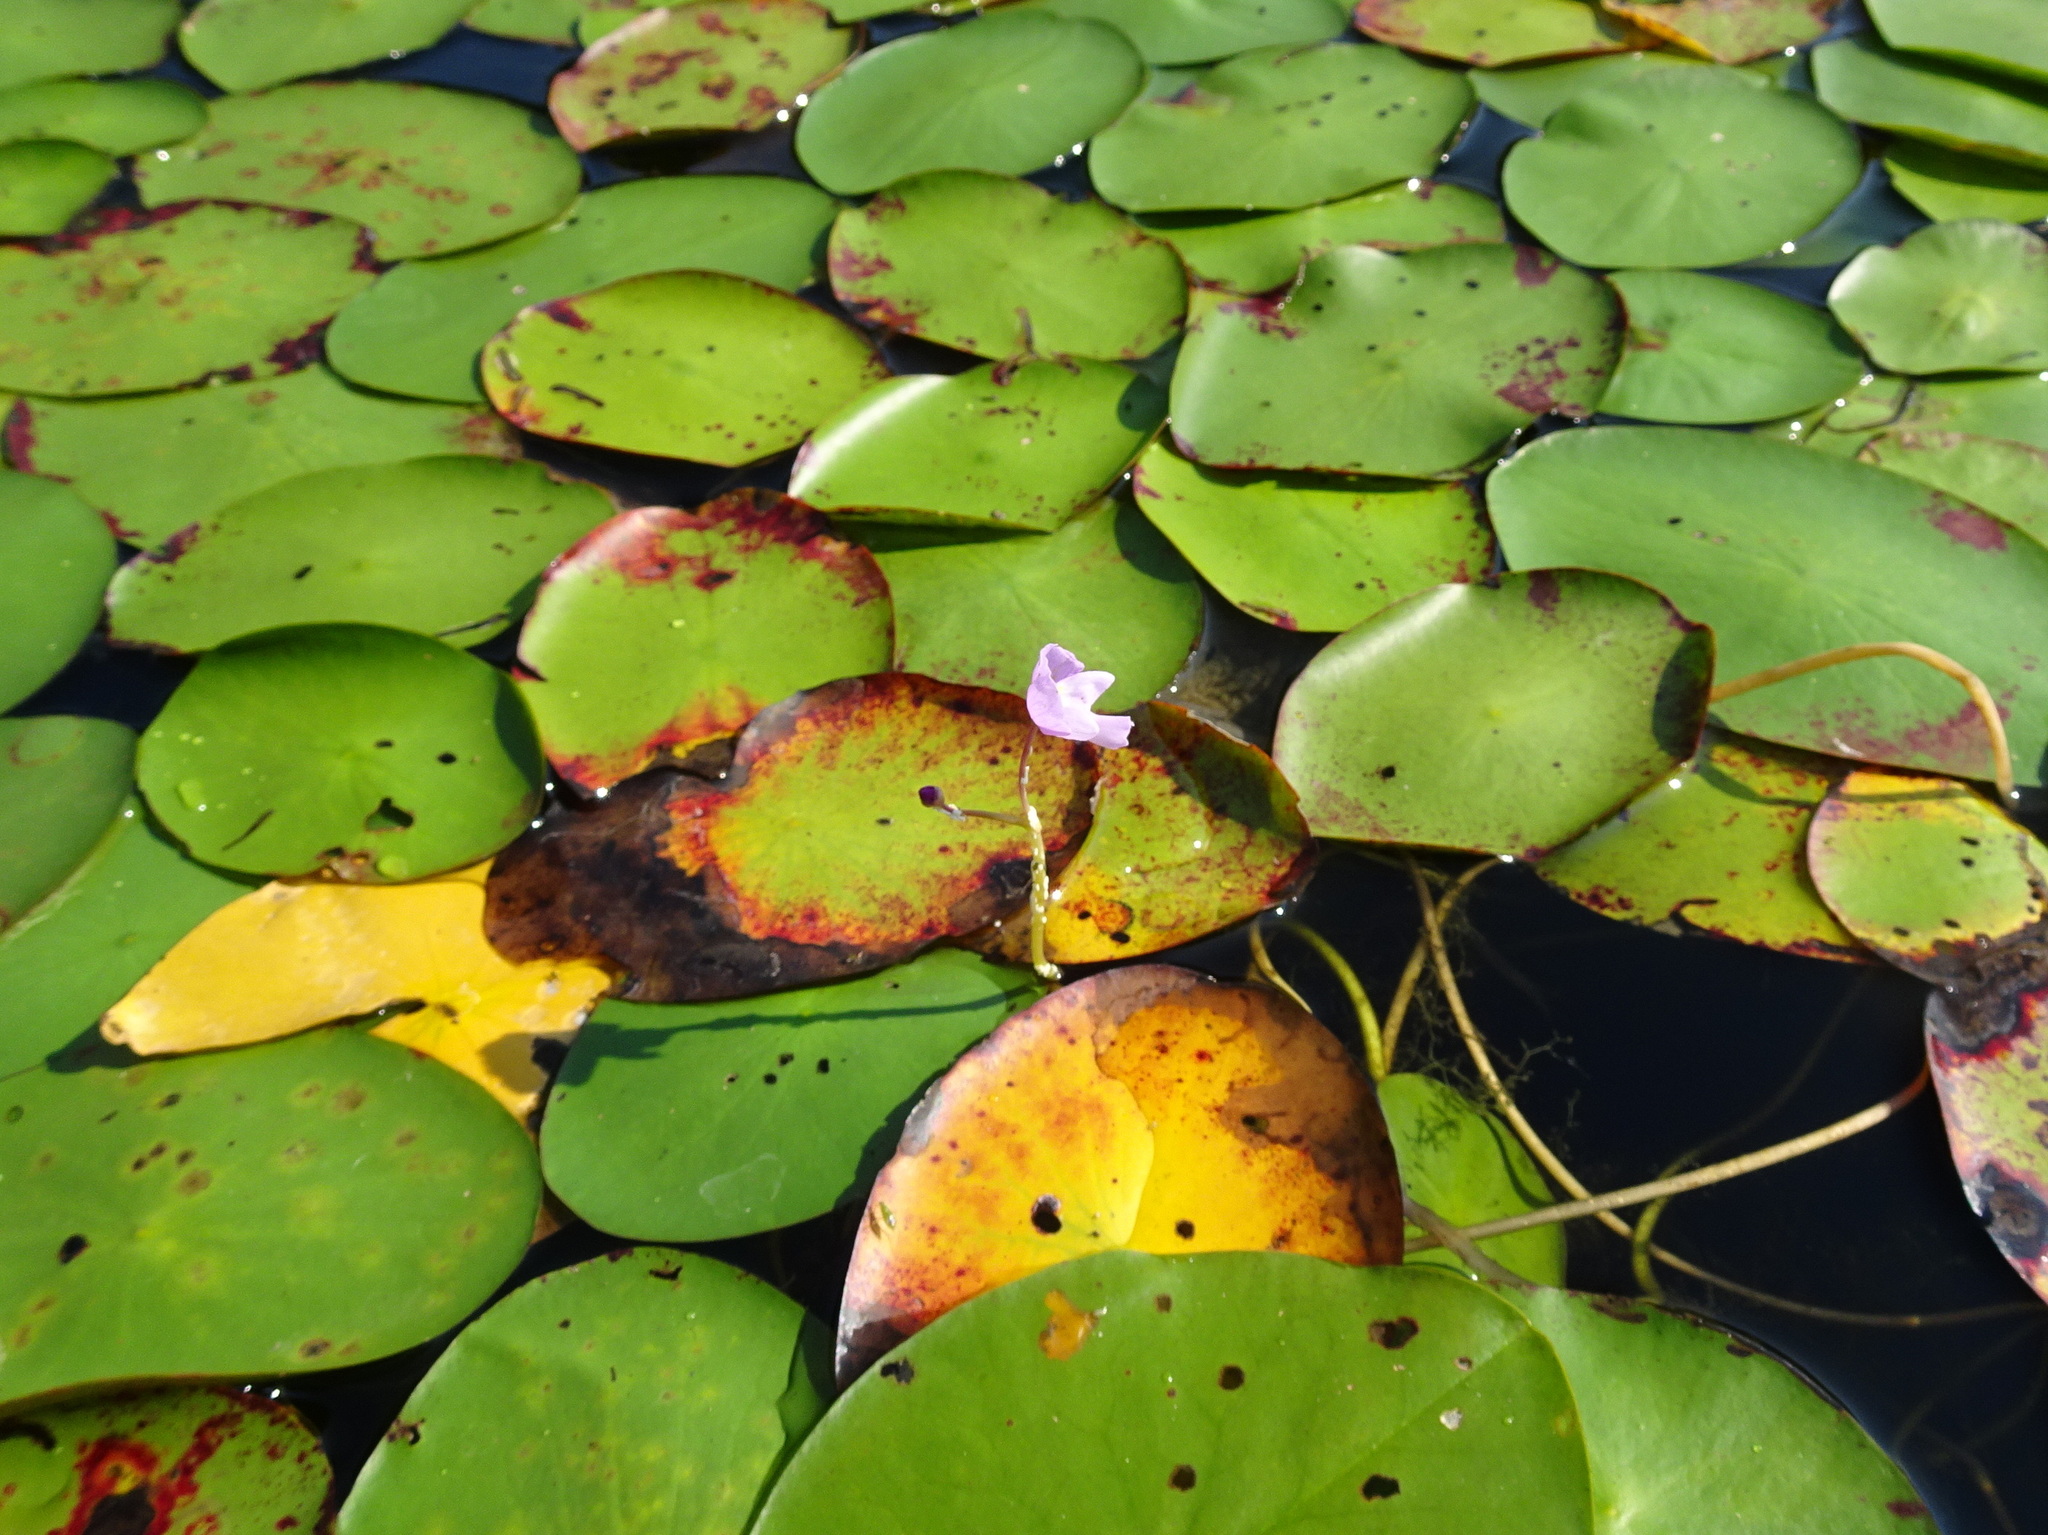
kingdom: Plantae
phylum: Tracheophyta
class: Magnoliopsida
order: Lamiales
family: Lentibulariaceae
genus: Utricularia
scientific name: Utricularia purpurea
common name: Eastern purple bladderwort
